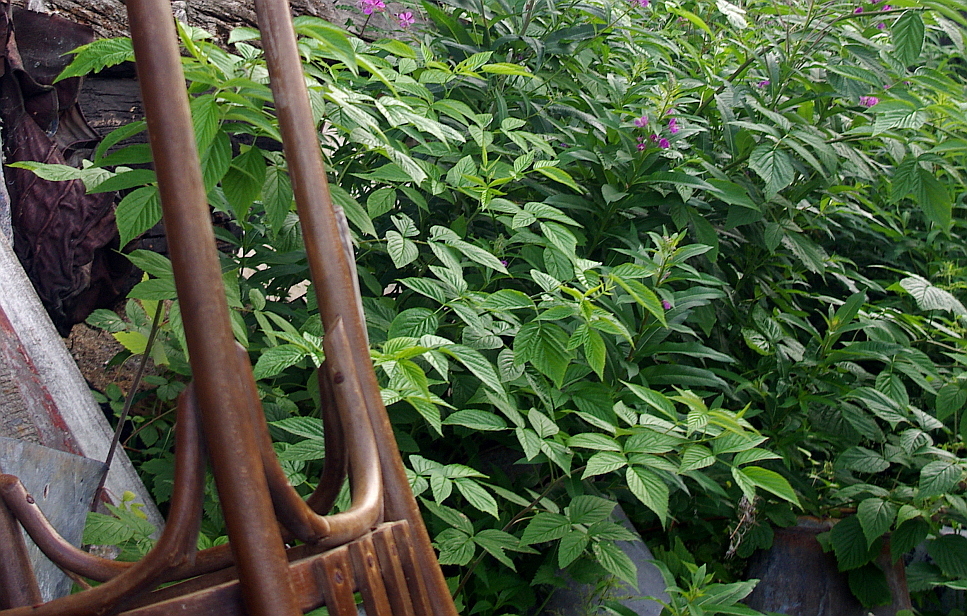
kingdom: Plantae
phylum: Tracheophyta
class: Magnoliopsida
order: Rosales
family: Rosaceae
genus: Rubus
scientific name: Rubus idaeus
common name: Raspberry
